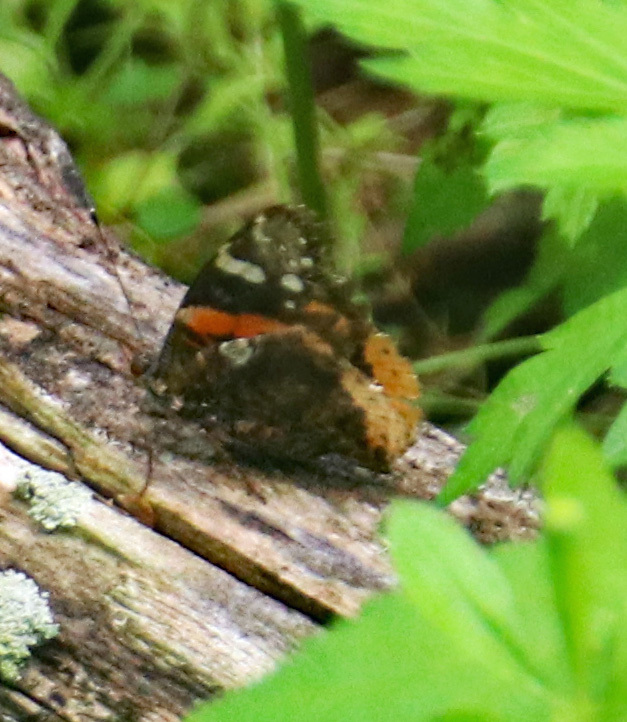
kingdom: Animalia
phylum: Arthropoda
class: Insecta
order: Lepidoptera
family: Nymphalidae
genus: Vanessa
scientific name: Vanessa atalanta
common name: Red admiral
